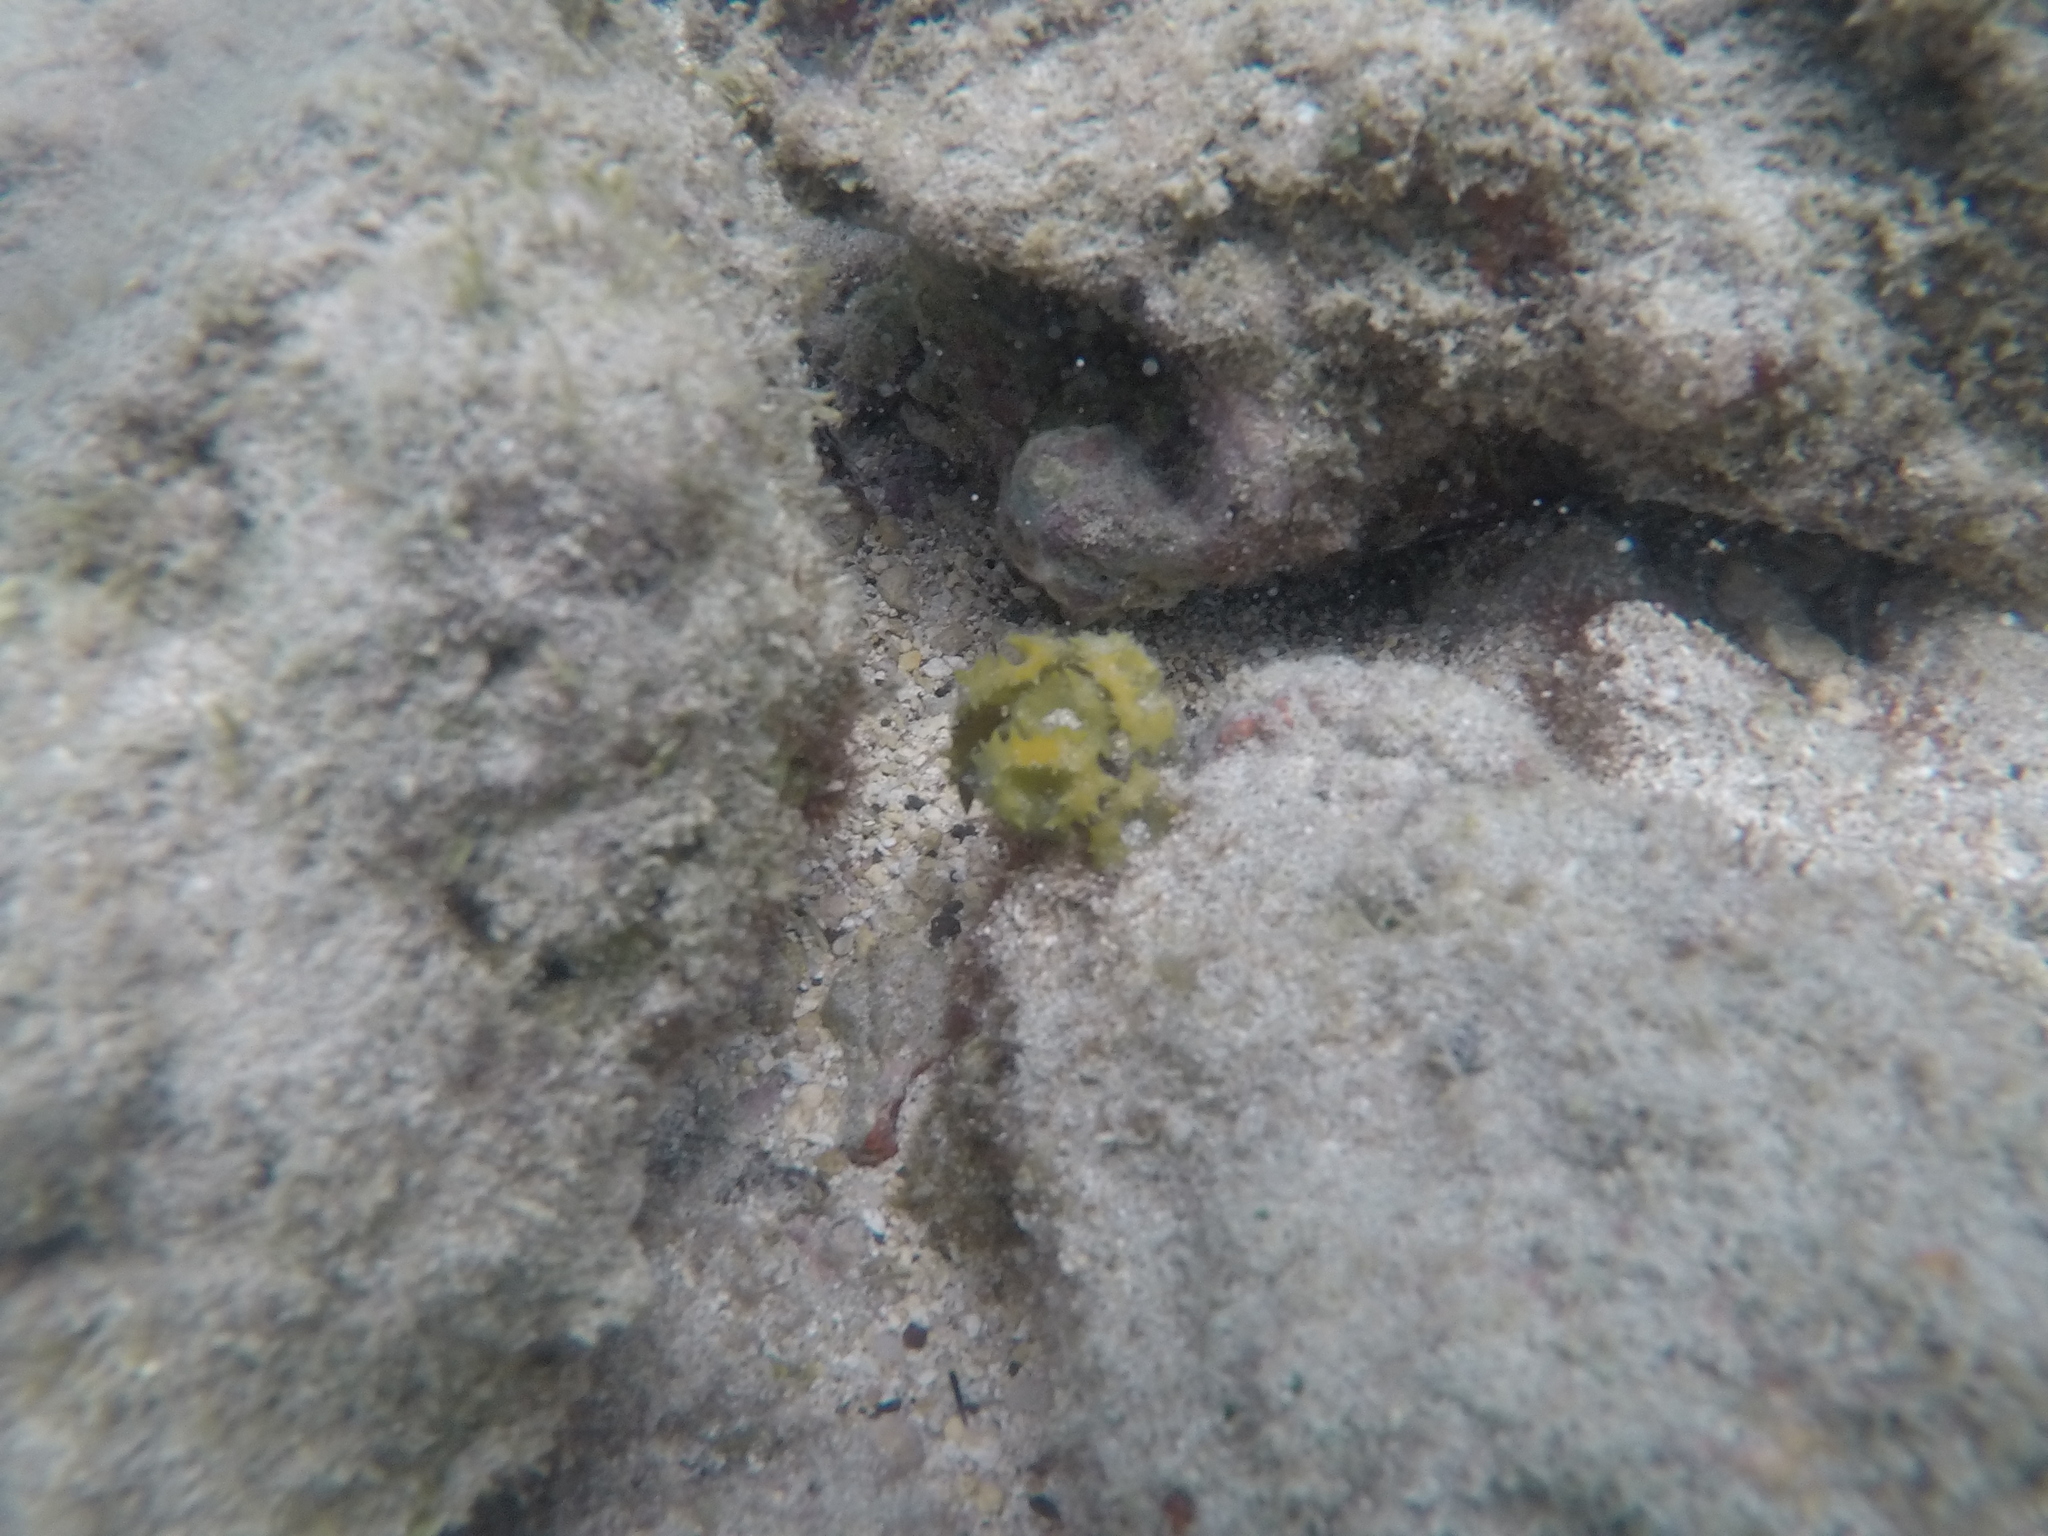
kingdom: Chromista
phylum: Ochrophyta
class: Phaeophyceae
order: Fucales
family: Sargassaceae
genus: Turbinaria
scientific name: Turbinaria ornata
